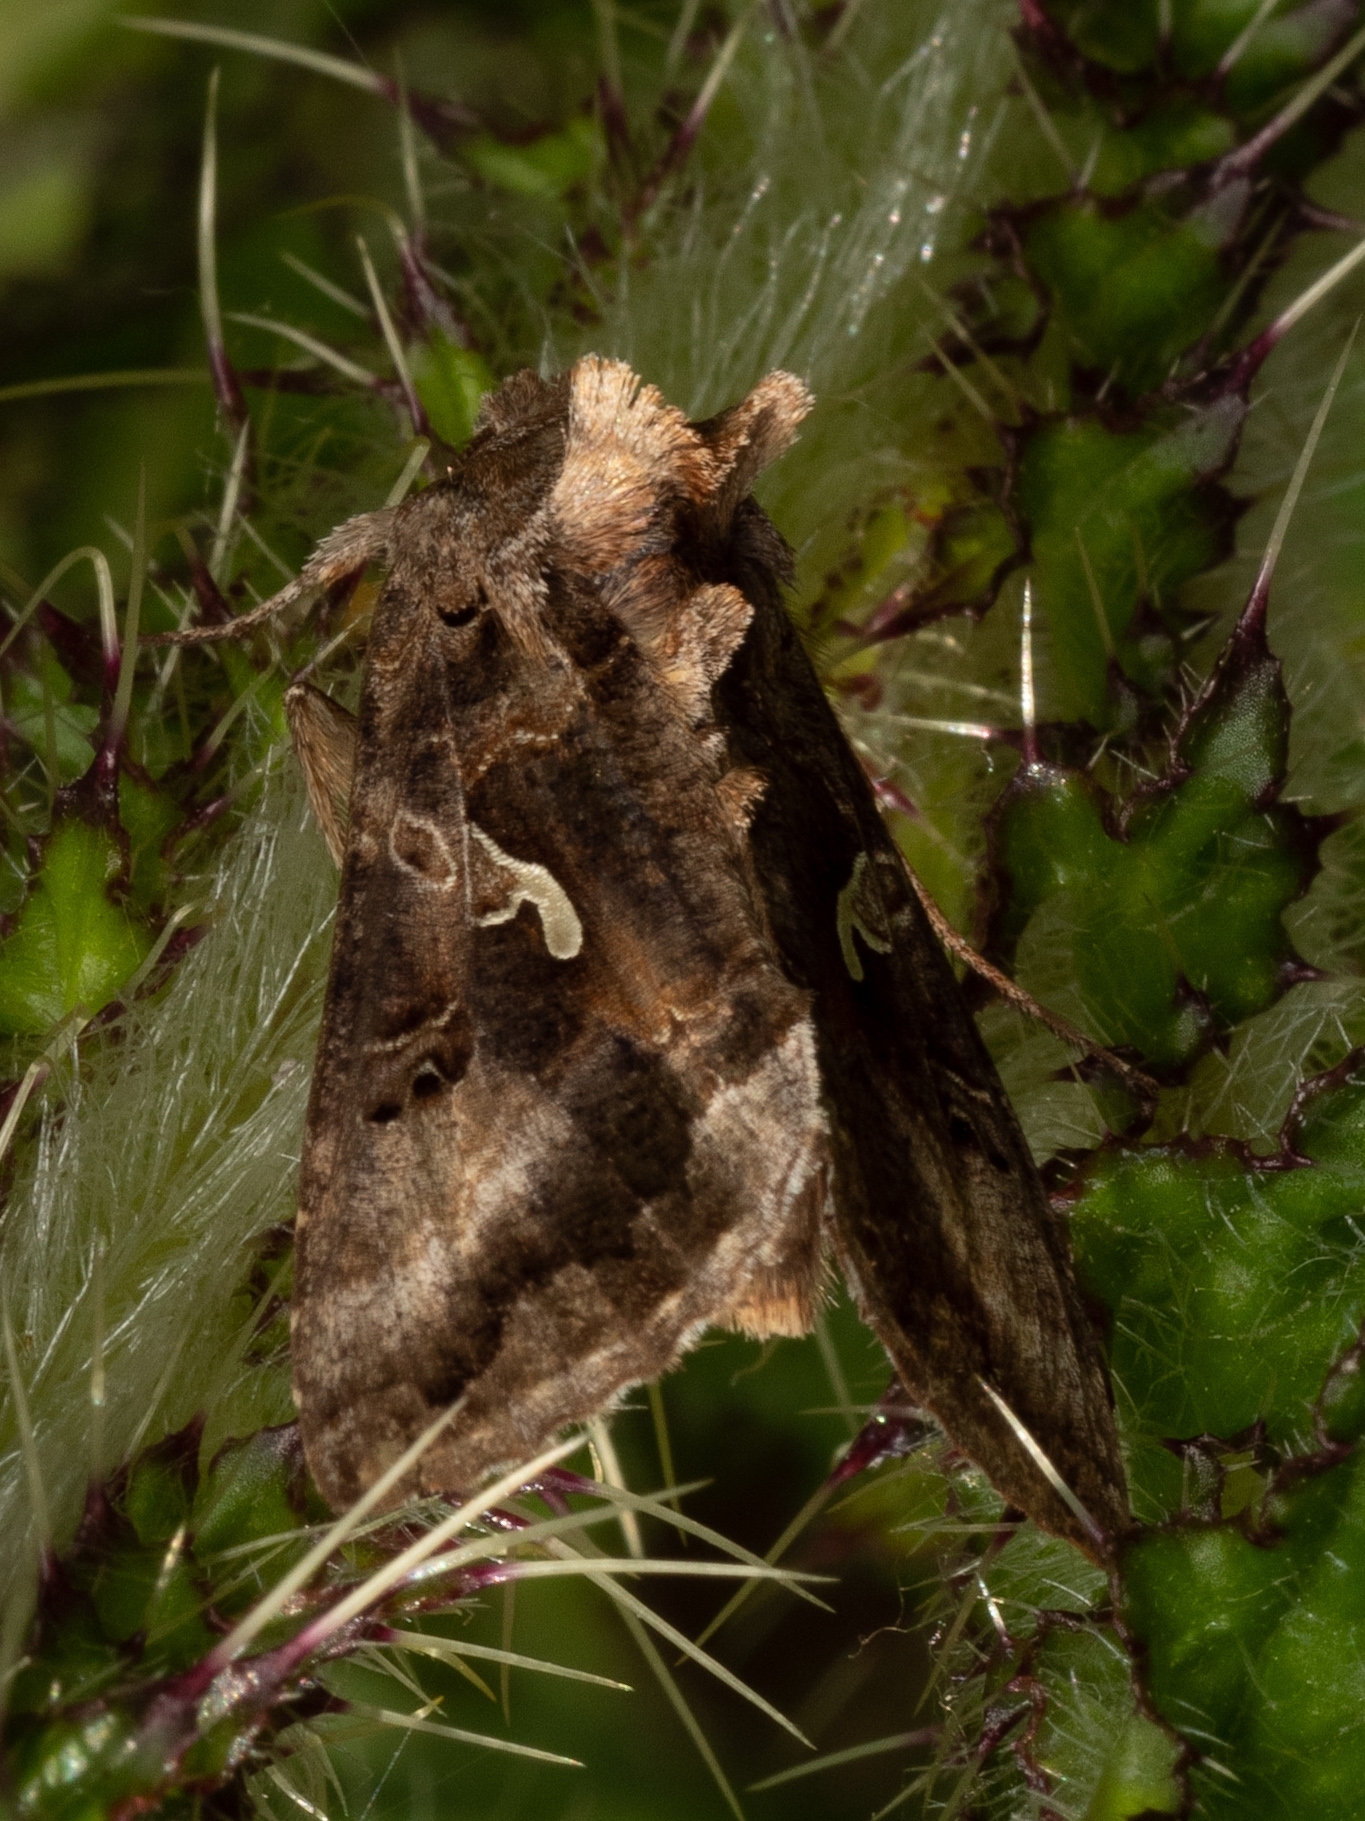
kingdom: Animalia
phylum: Arthropoda
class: Insecta
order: Lepidoptera
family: Noctuidae
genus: Autographa
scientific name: Autographa gamma
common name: Silver y
